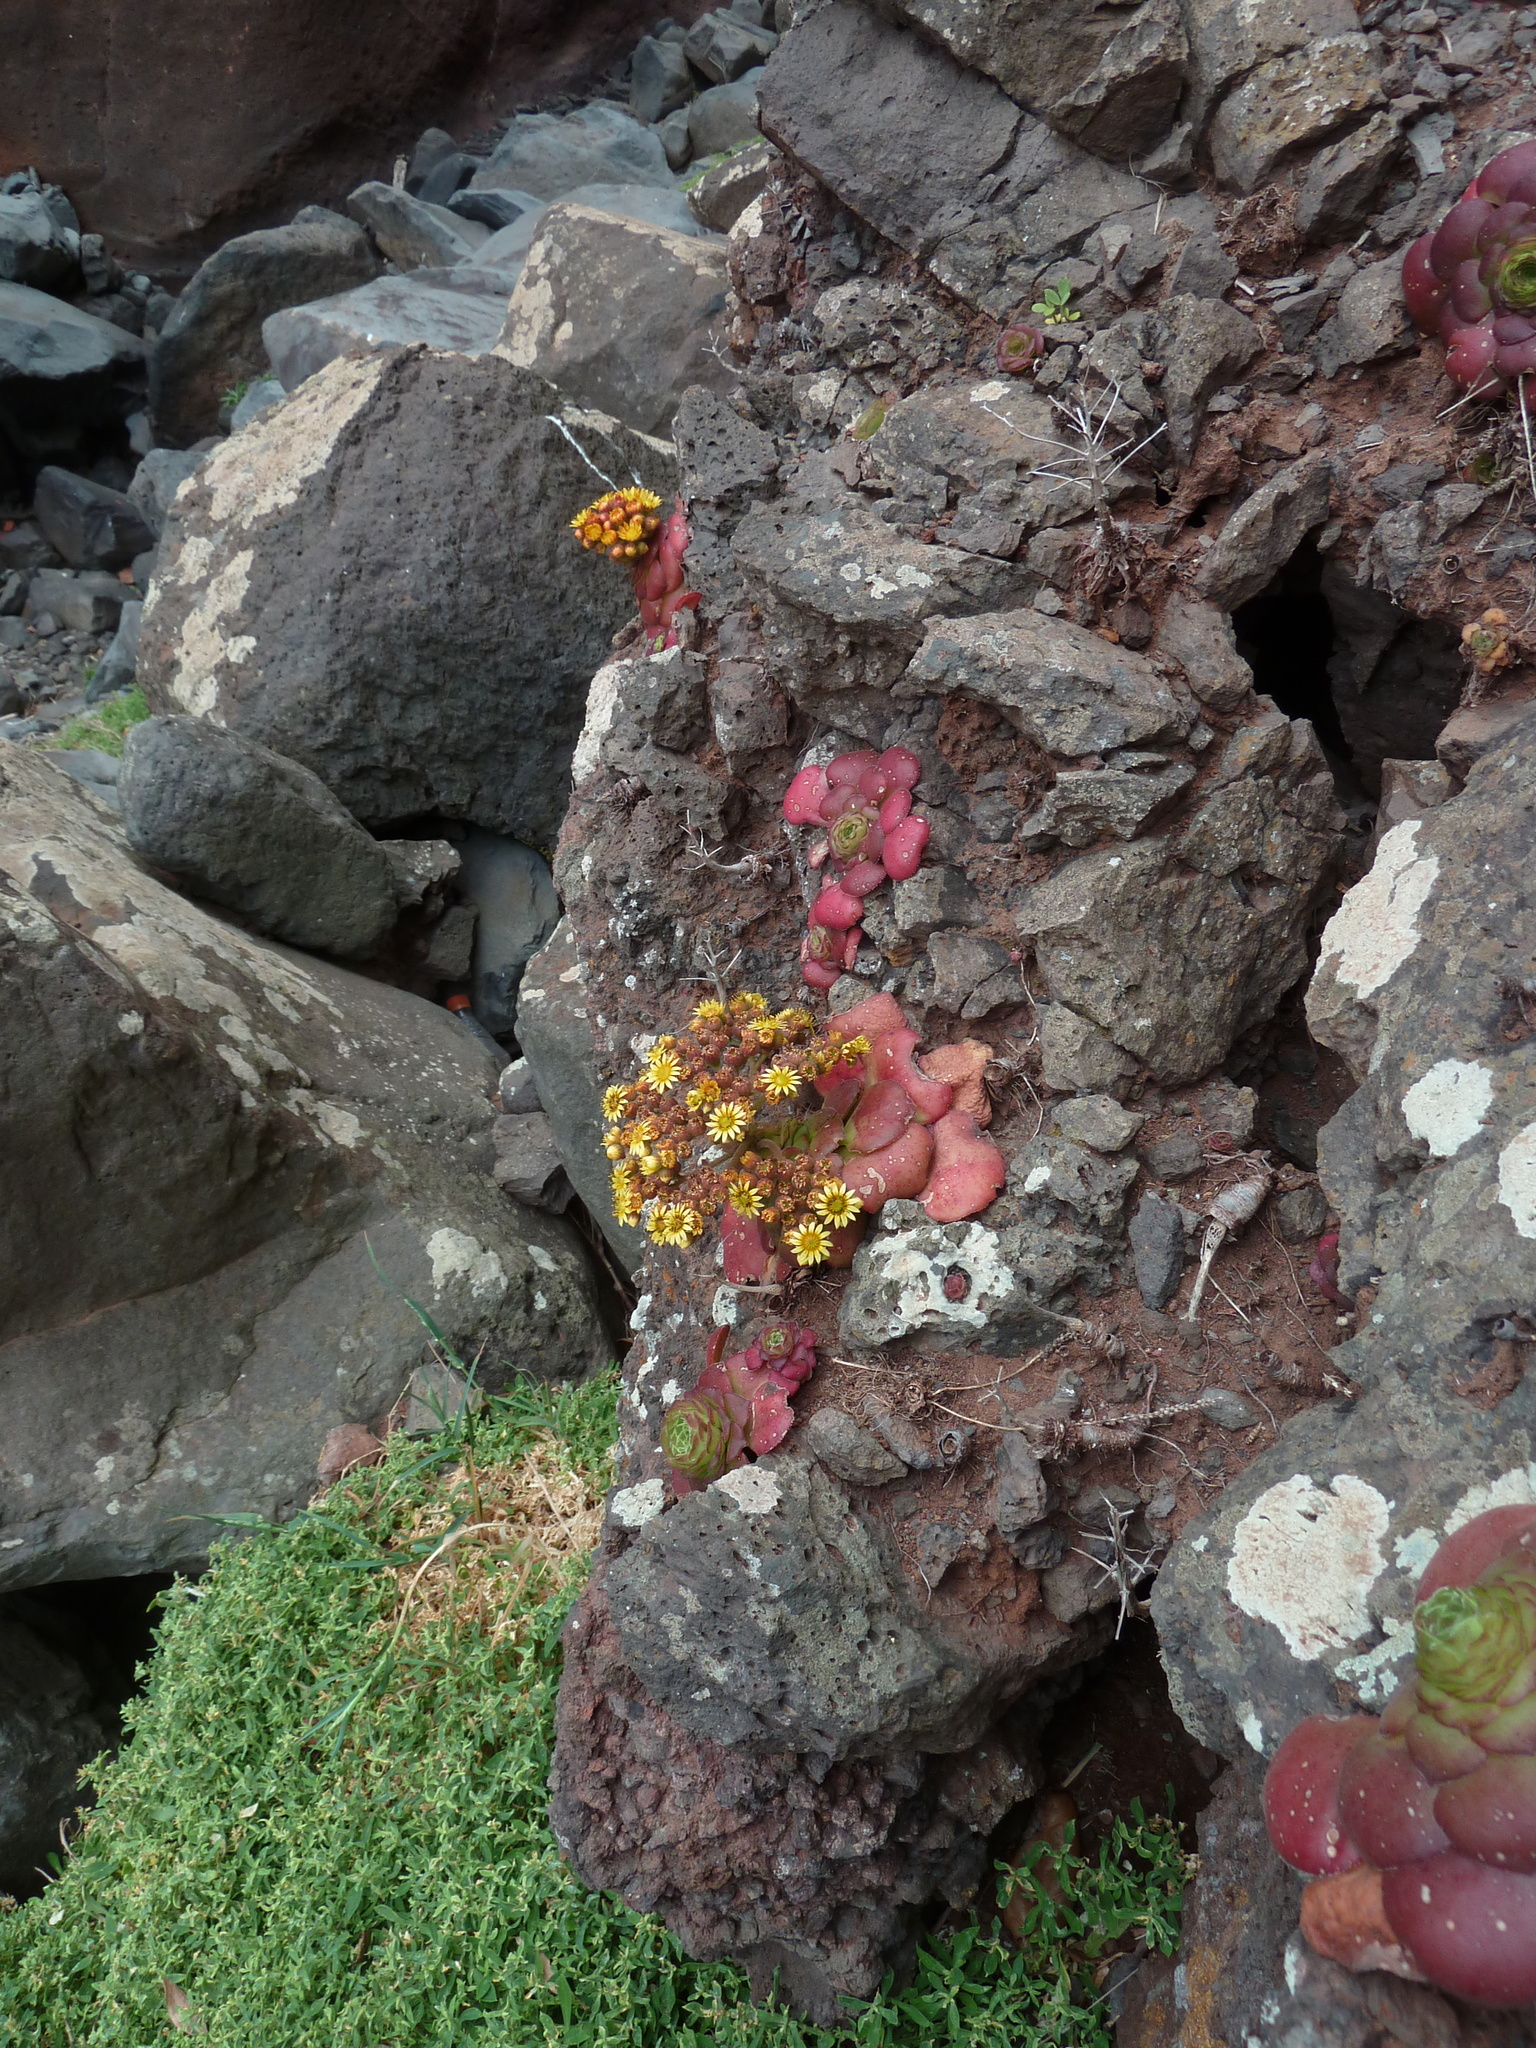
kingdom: Plantae
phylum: Tracheophyta
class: Magnoliopsida
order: Saxifragales
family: Crassulaceae
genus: Aeonium
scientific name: Aeonium glandulosum
